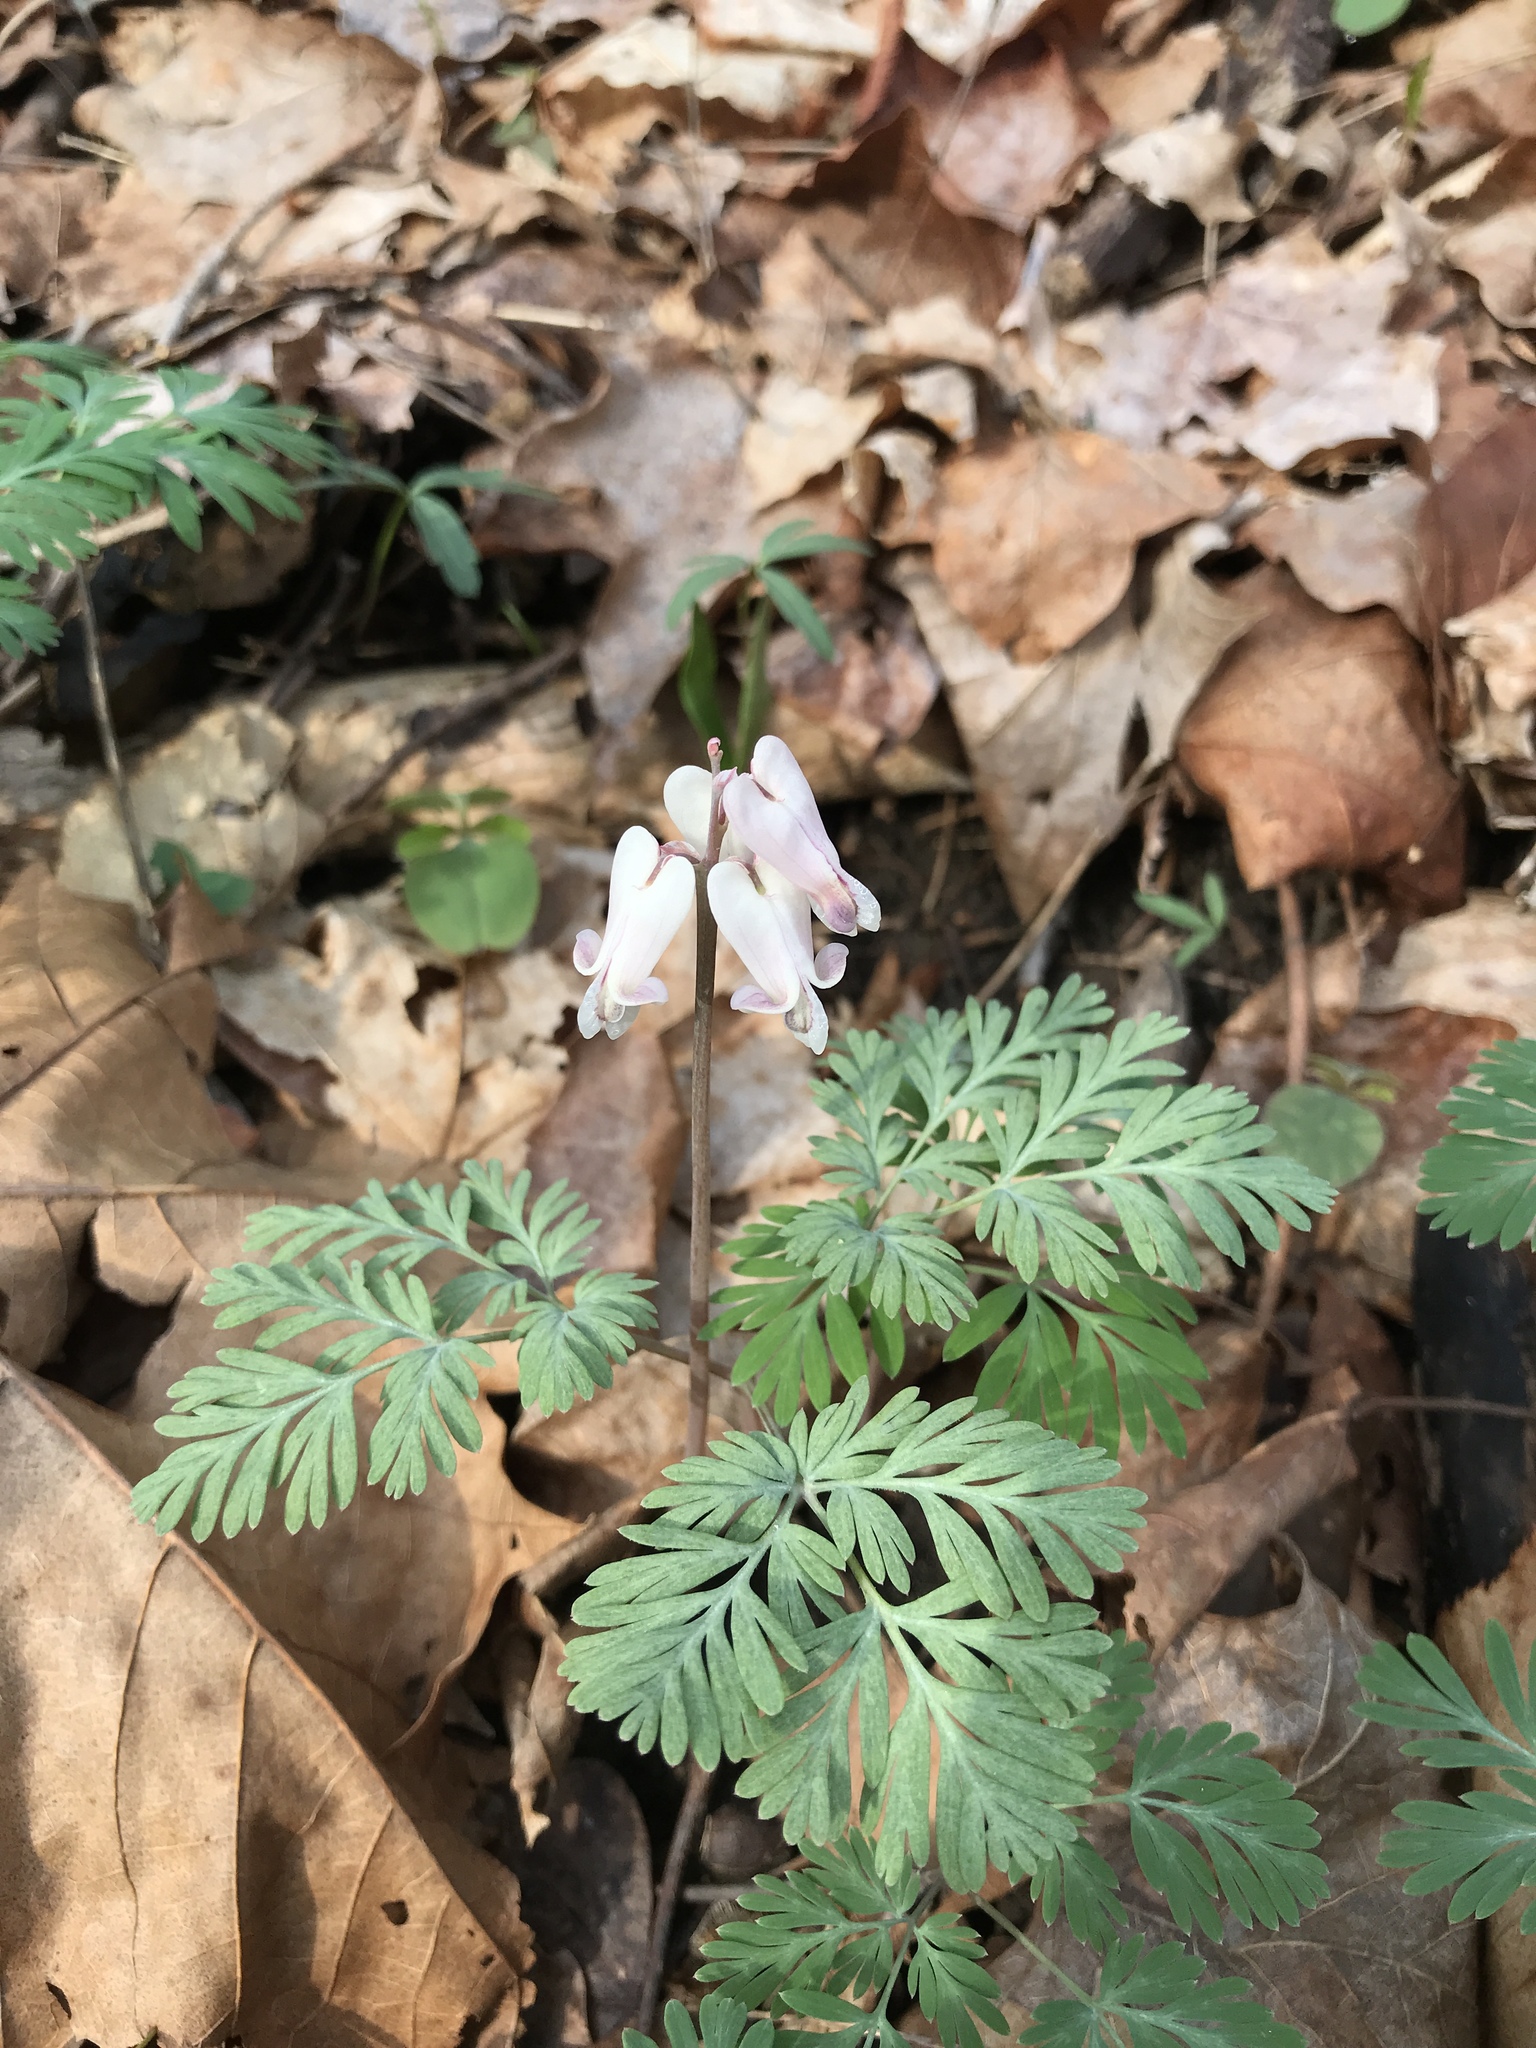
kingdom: Plantae
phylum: Tracheophyta
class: Magnoliopsida
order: Ranunculales
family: Papaveraceae
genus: Dicentra
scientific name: Dicentra canadensis
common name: Squirrel-corn
